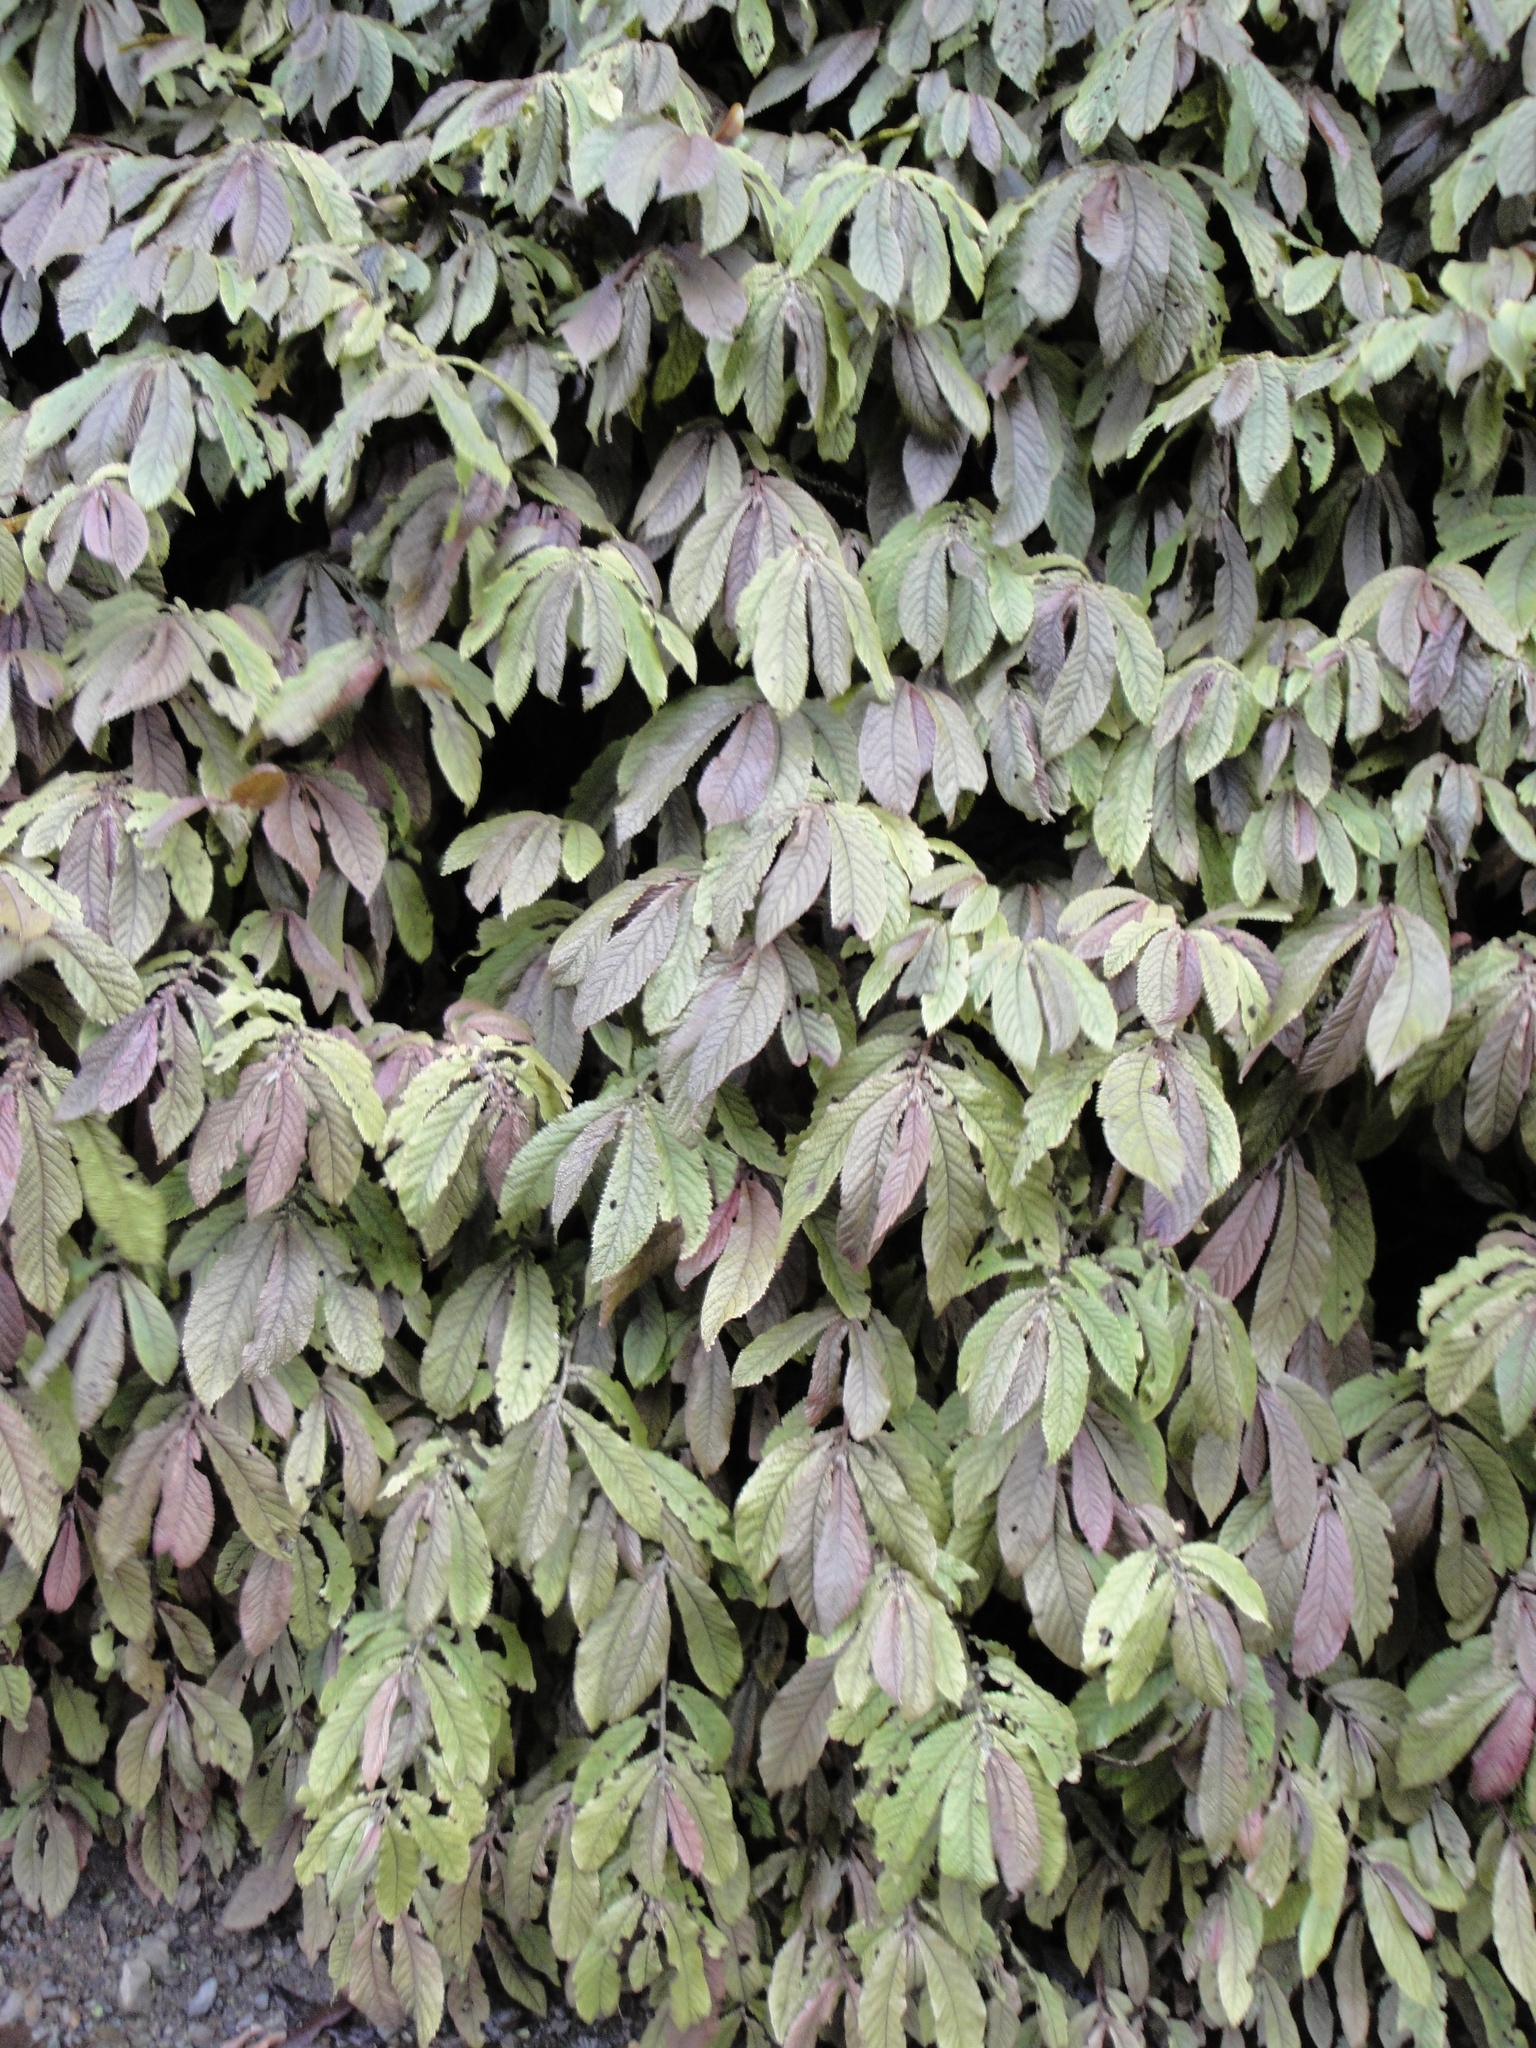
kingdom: Plantae
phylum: Tracheophyta
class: Magnoliopsida
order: Rosales
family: Urticaceae
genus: Elatostema
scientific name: Elatostema rugosum
